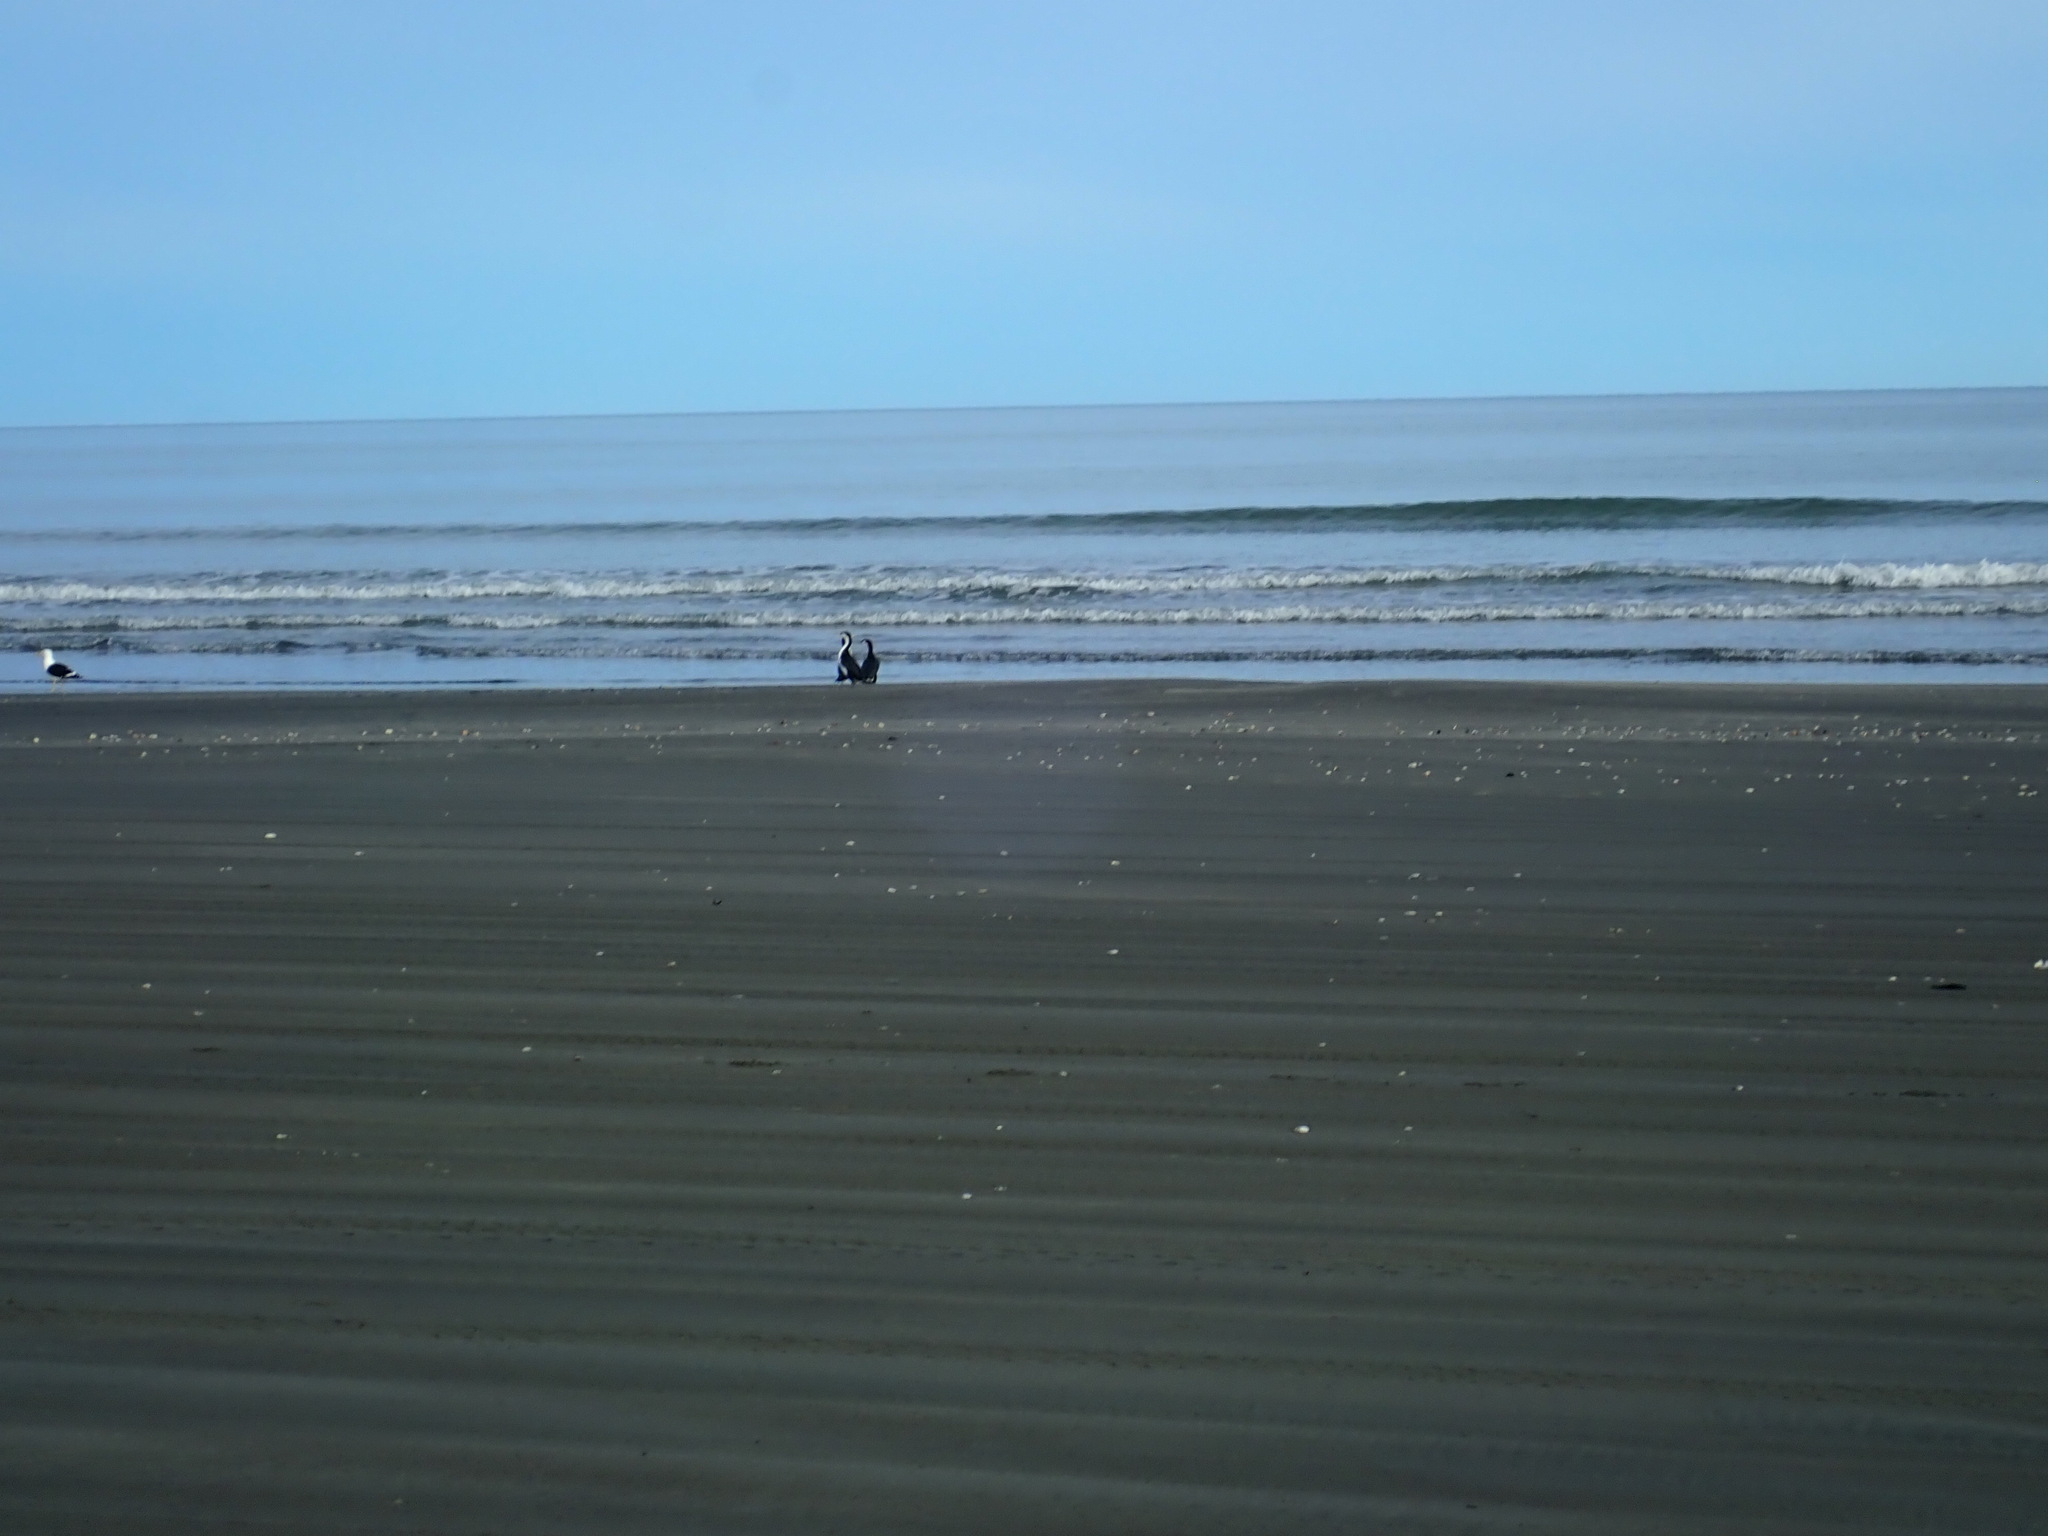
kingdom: Animalia
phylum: Chordata
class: Aves
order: Suliformes
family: Phalacrocoracidae
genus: Phalacrocorax
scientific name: Phalacrocorax varius
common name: Pied cormorant
